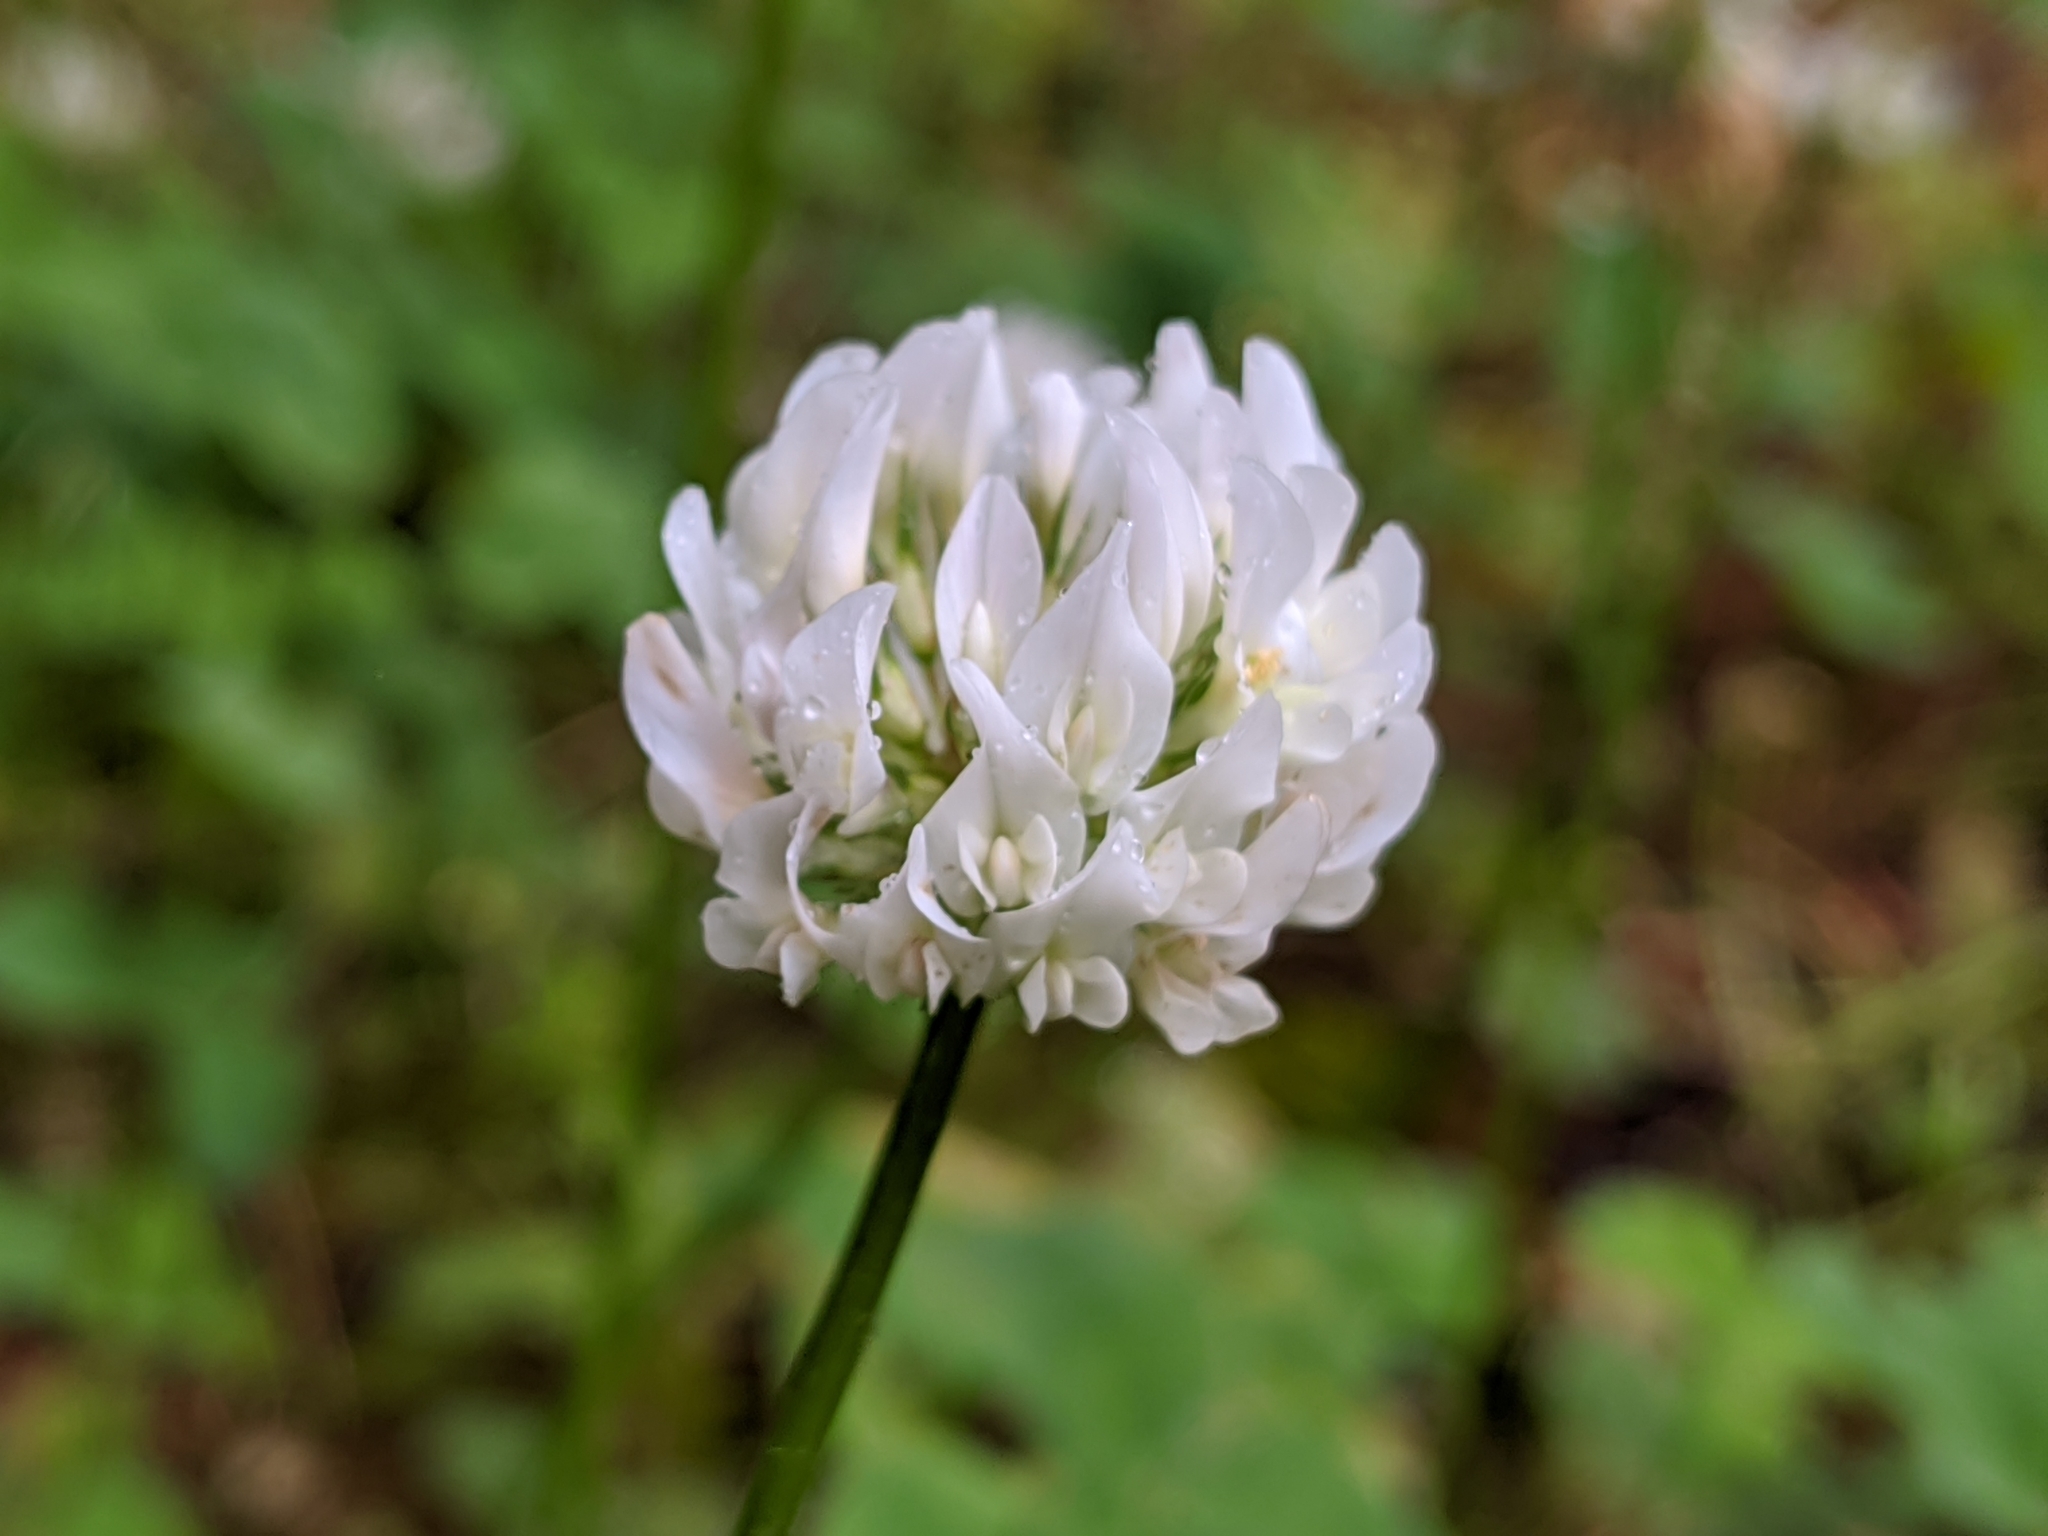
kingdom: Plantae
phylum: Tracheophyta
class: Magnoliopsida
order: Fabales
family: Fabaceae
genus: Trifolium
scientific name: Trifolium repens
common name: White clover
